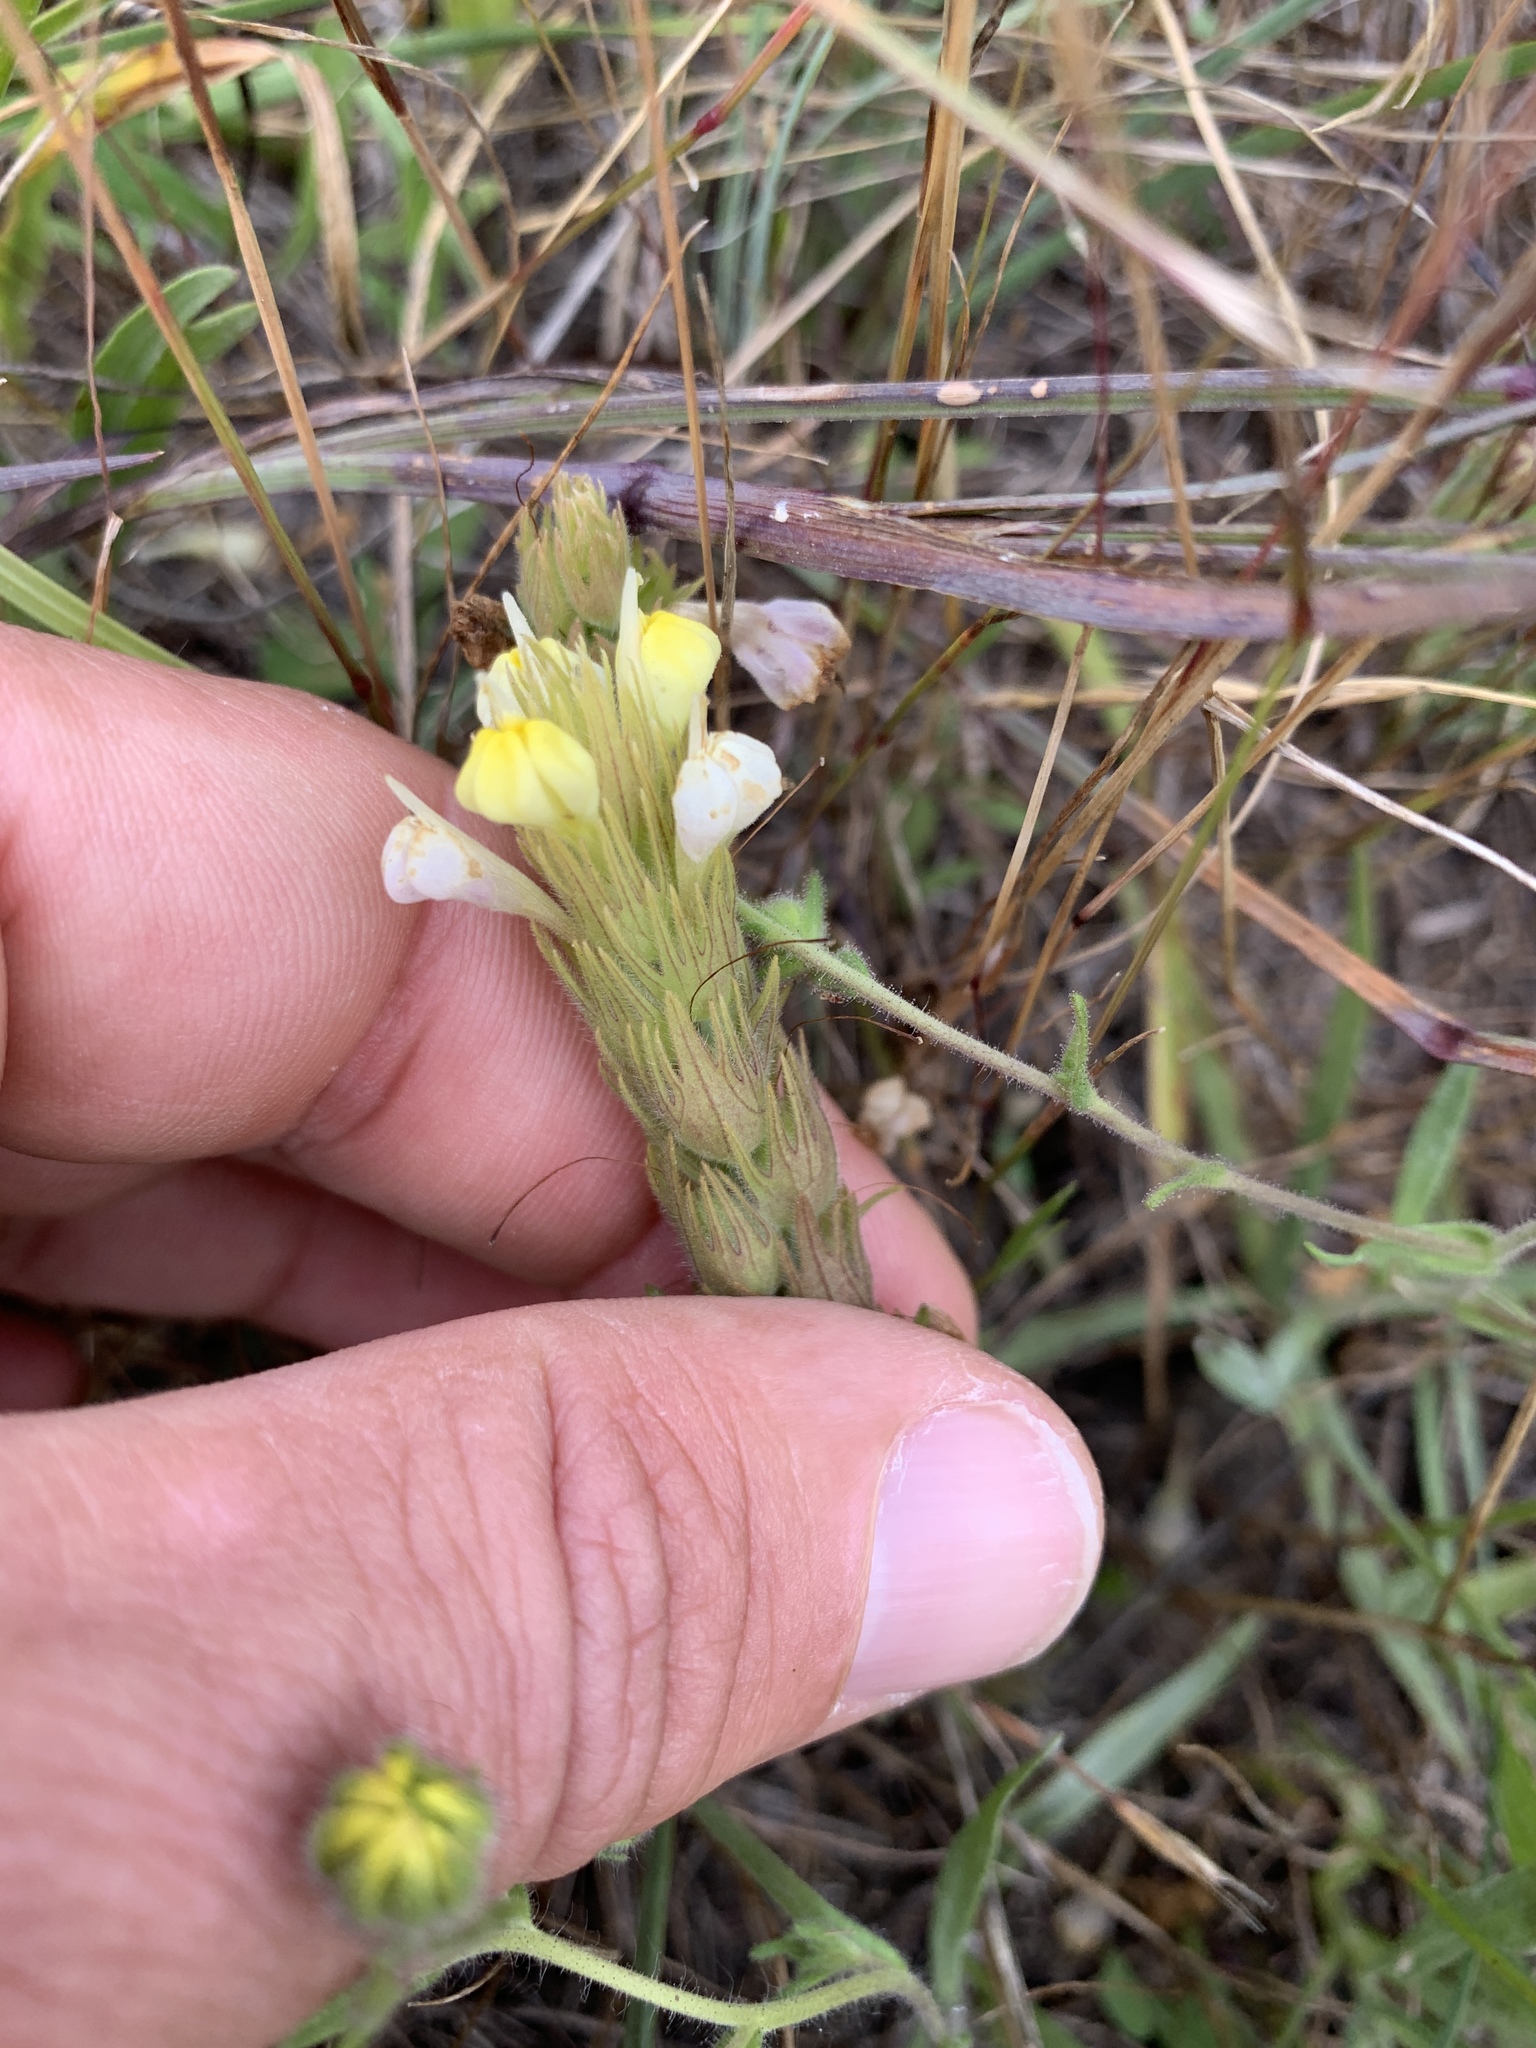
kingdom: Plantae
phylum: Tracheophyta
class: Magnoliopsida
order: Lamiales
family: Orobanchaceae
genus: Castilleja
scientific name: Castilleja rubicundula
